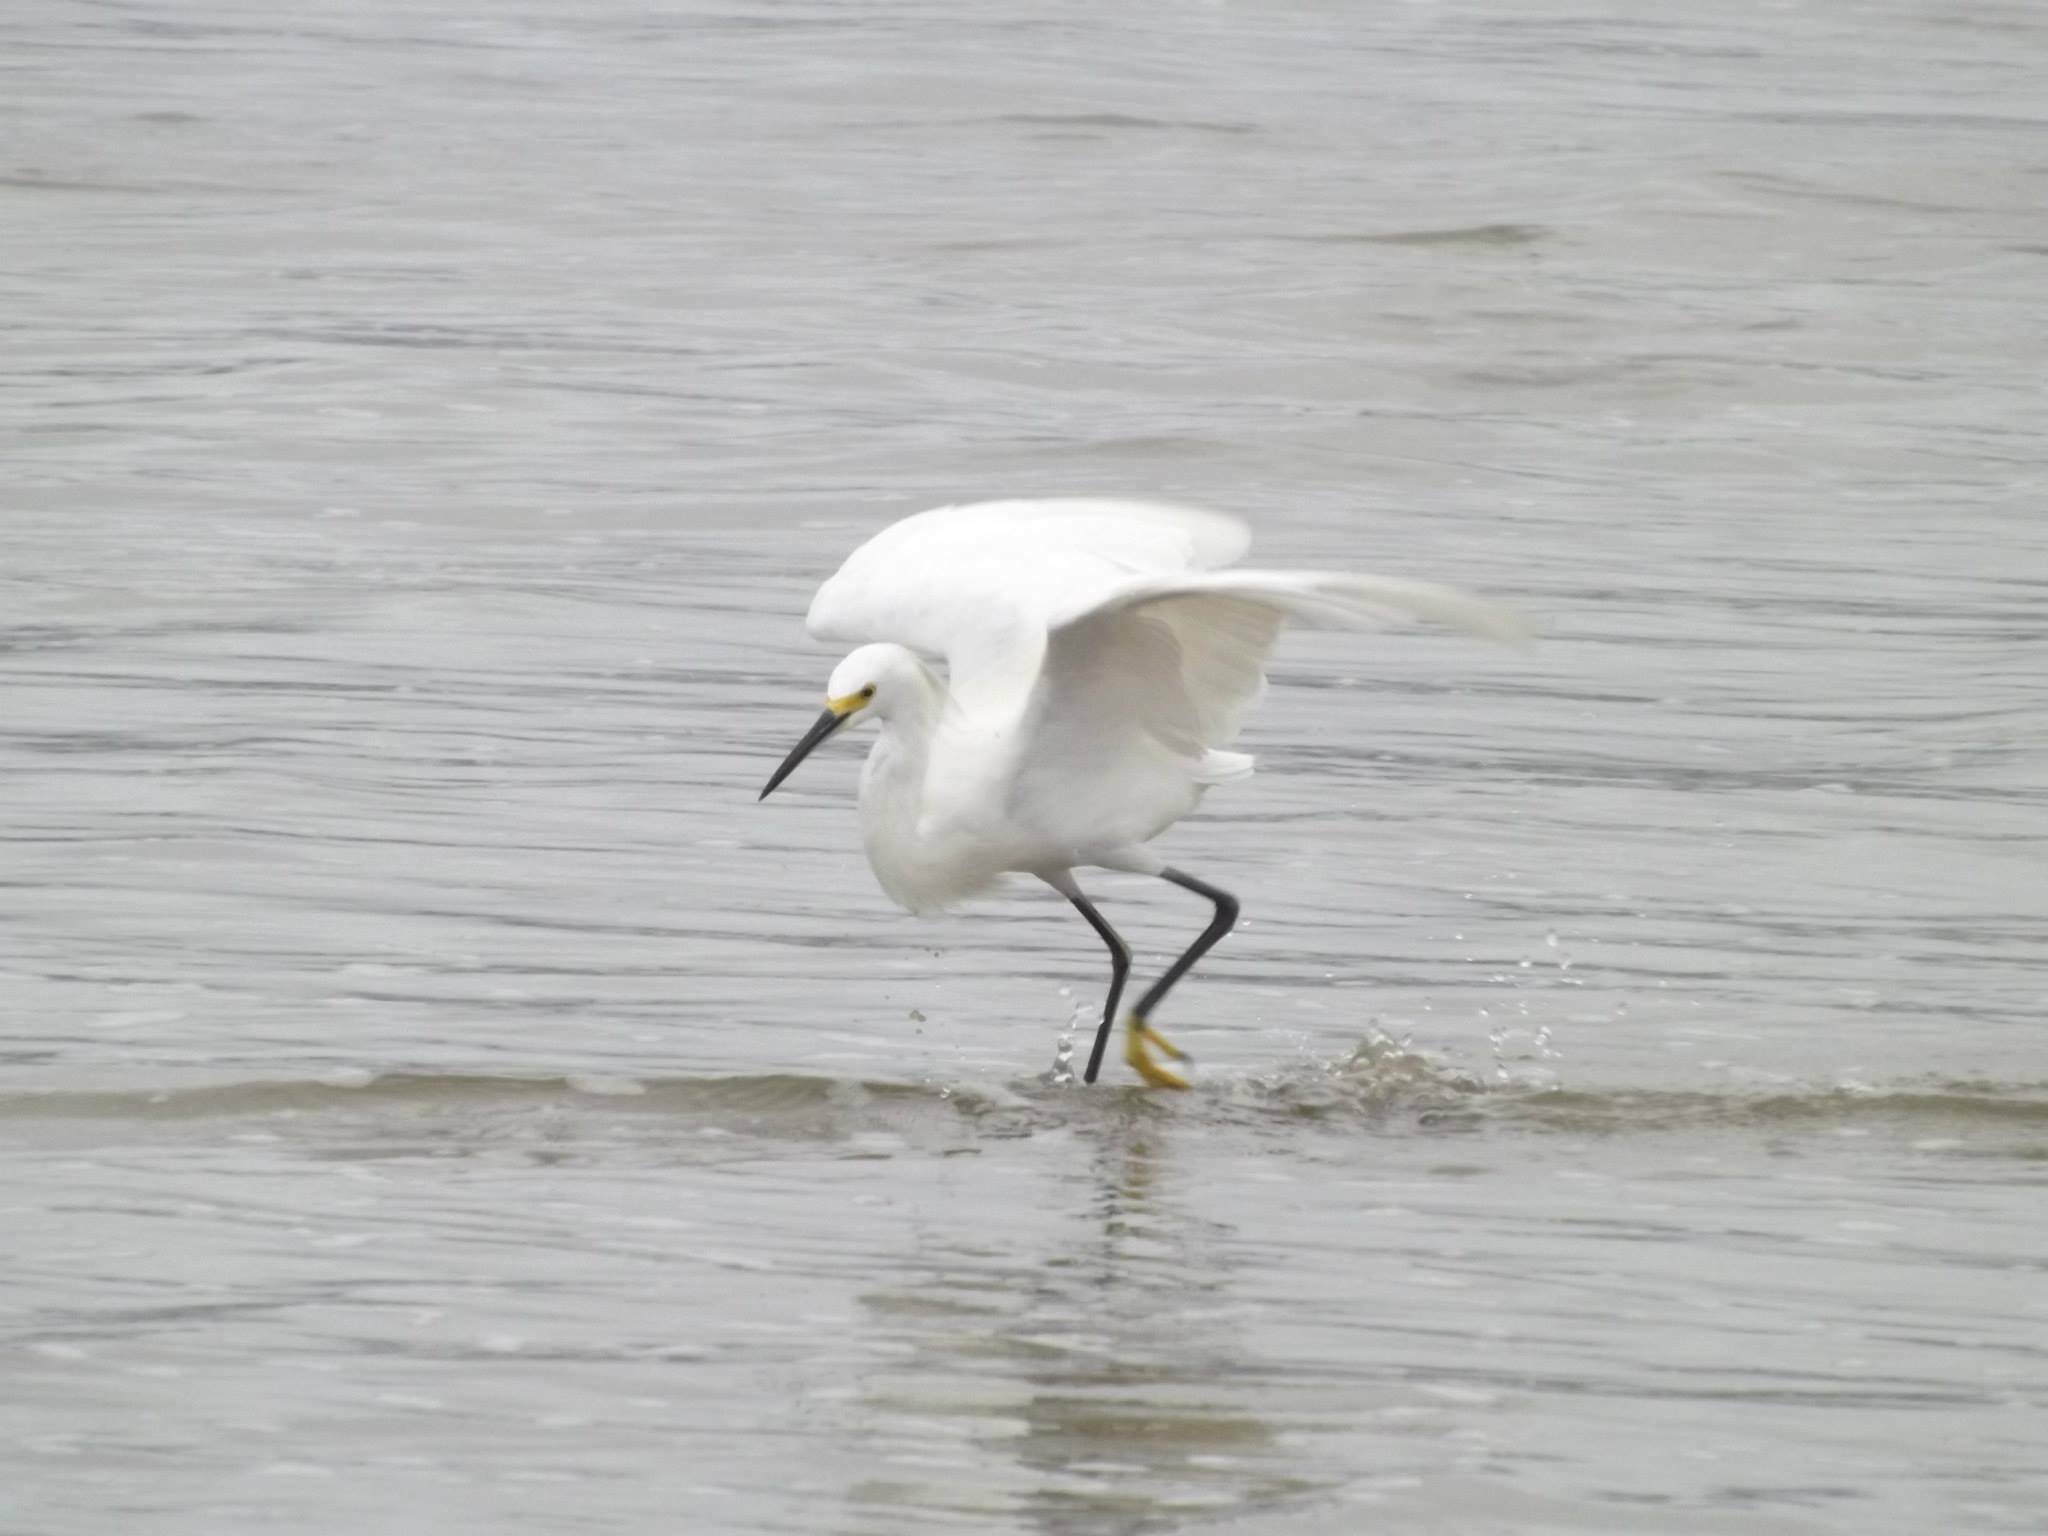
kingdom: Animalia
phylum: Chordata
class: Aves
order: Pelecaniformes
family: Ardeidae
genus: Egretta
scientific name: Egretta thula
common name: Snowy egret
